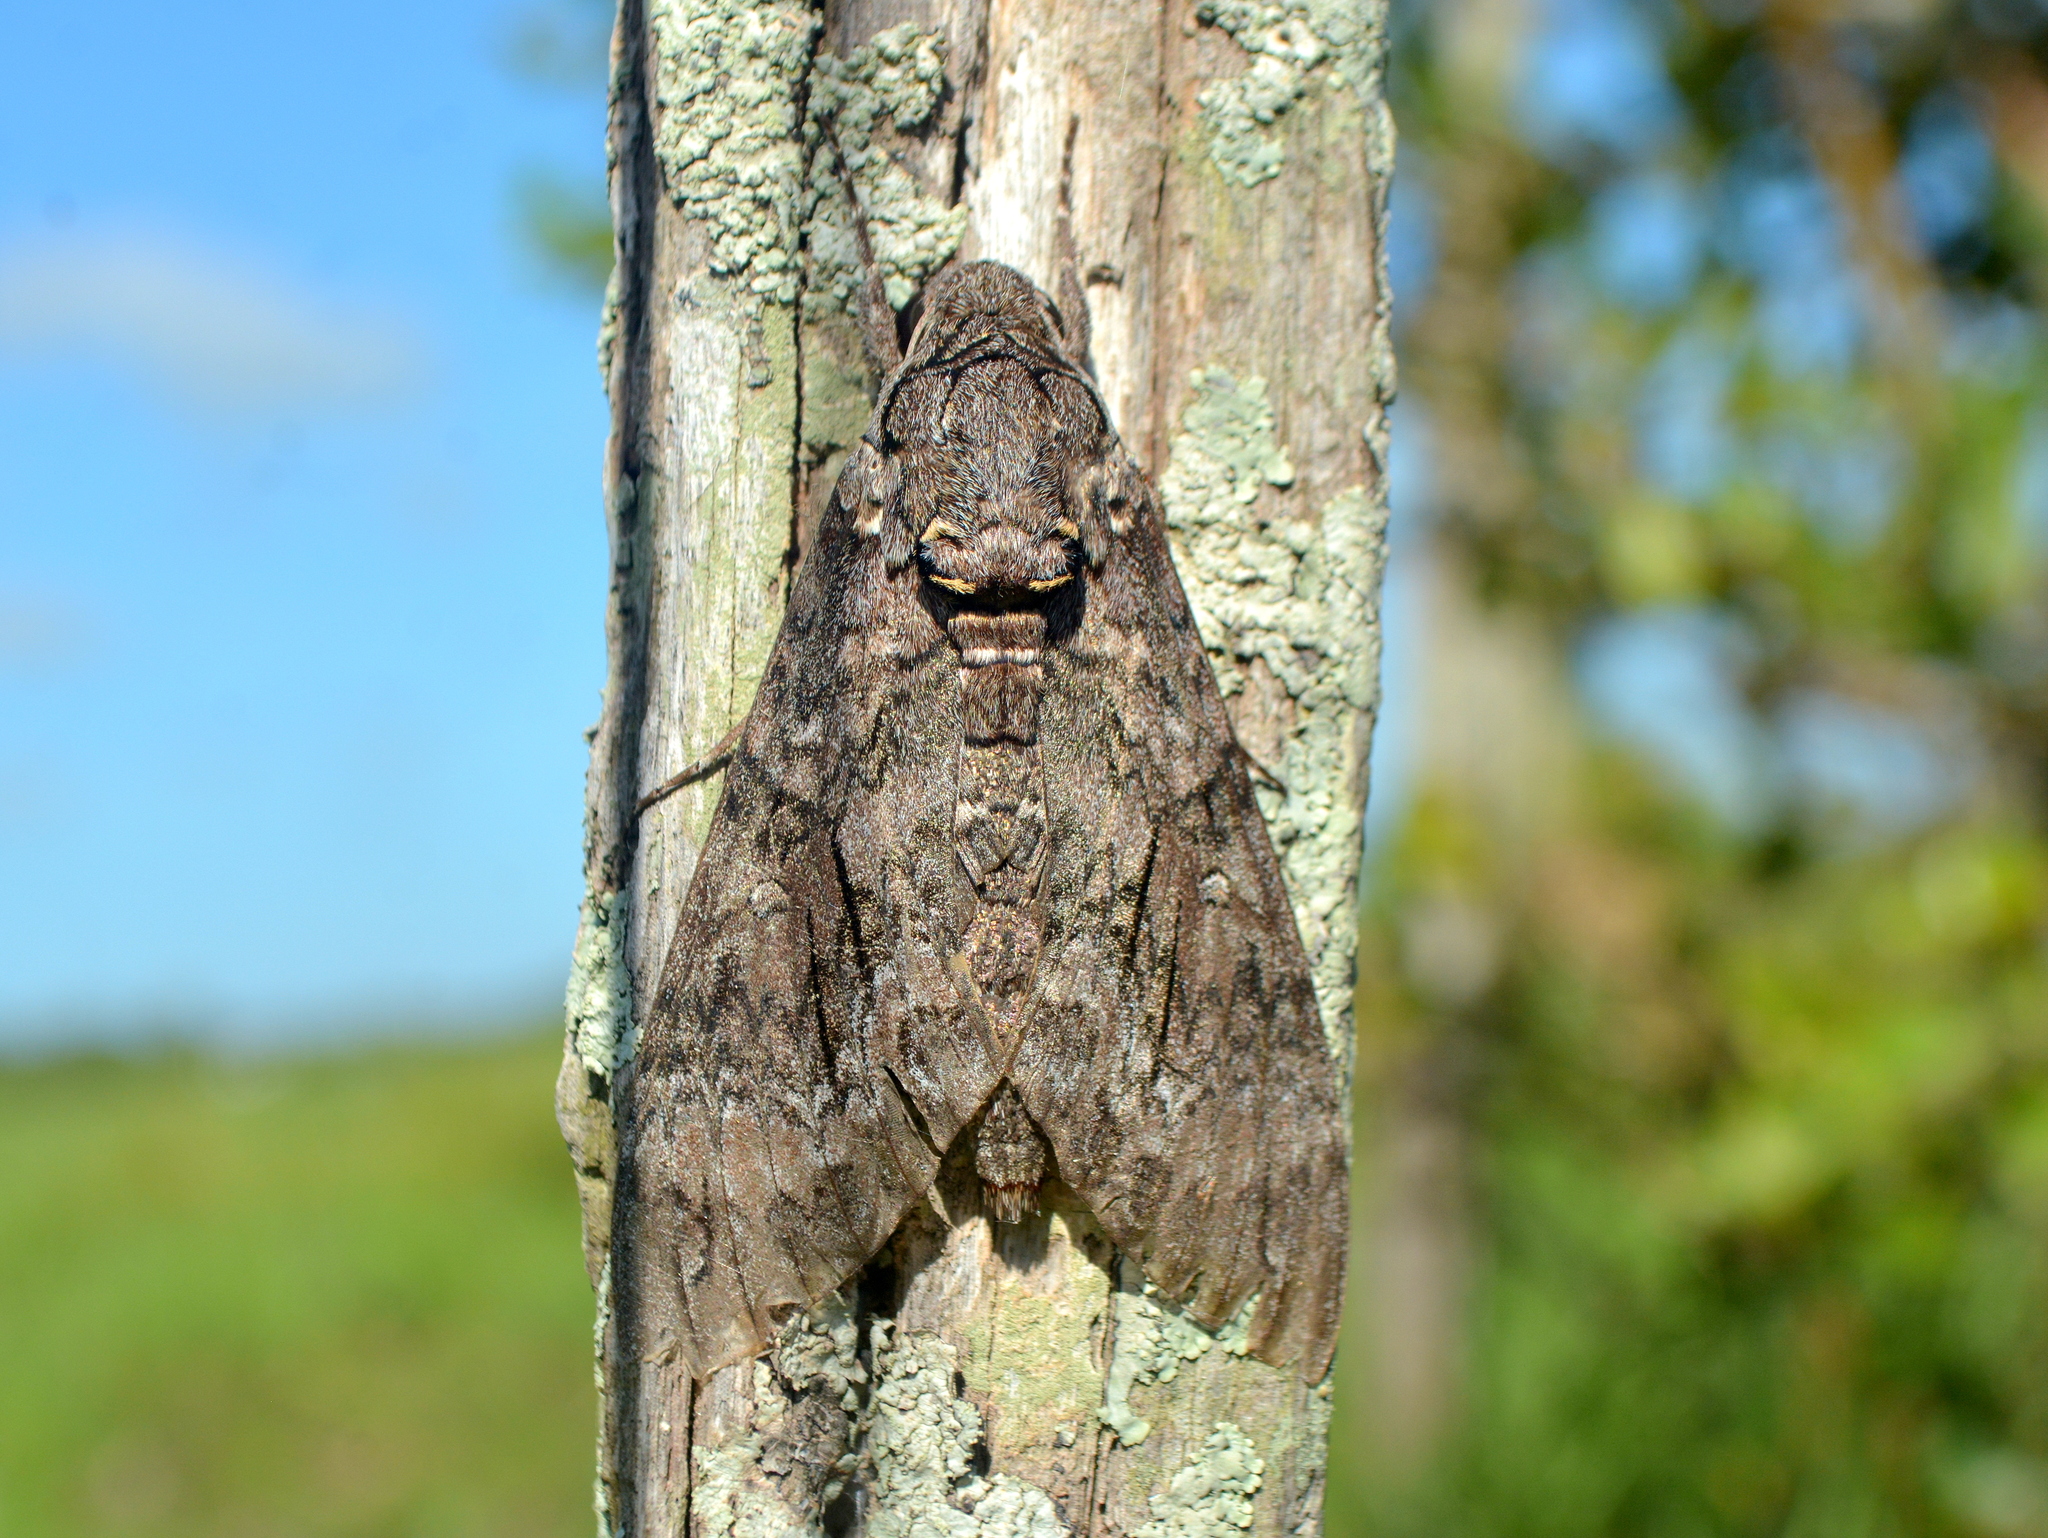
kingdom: Animalia
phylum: Arthropoda
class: Insecta
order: Lepidoptera
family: Sphingidae
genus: Agrius
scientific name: Agrius cingulata
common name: Pink-spotted hawkmoth
